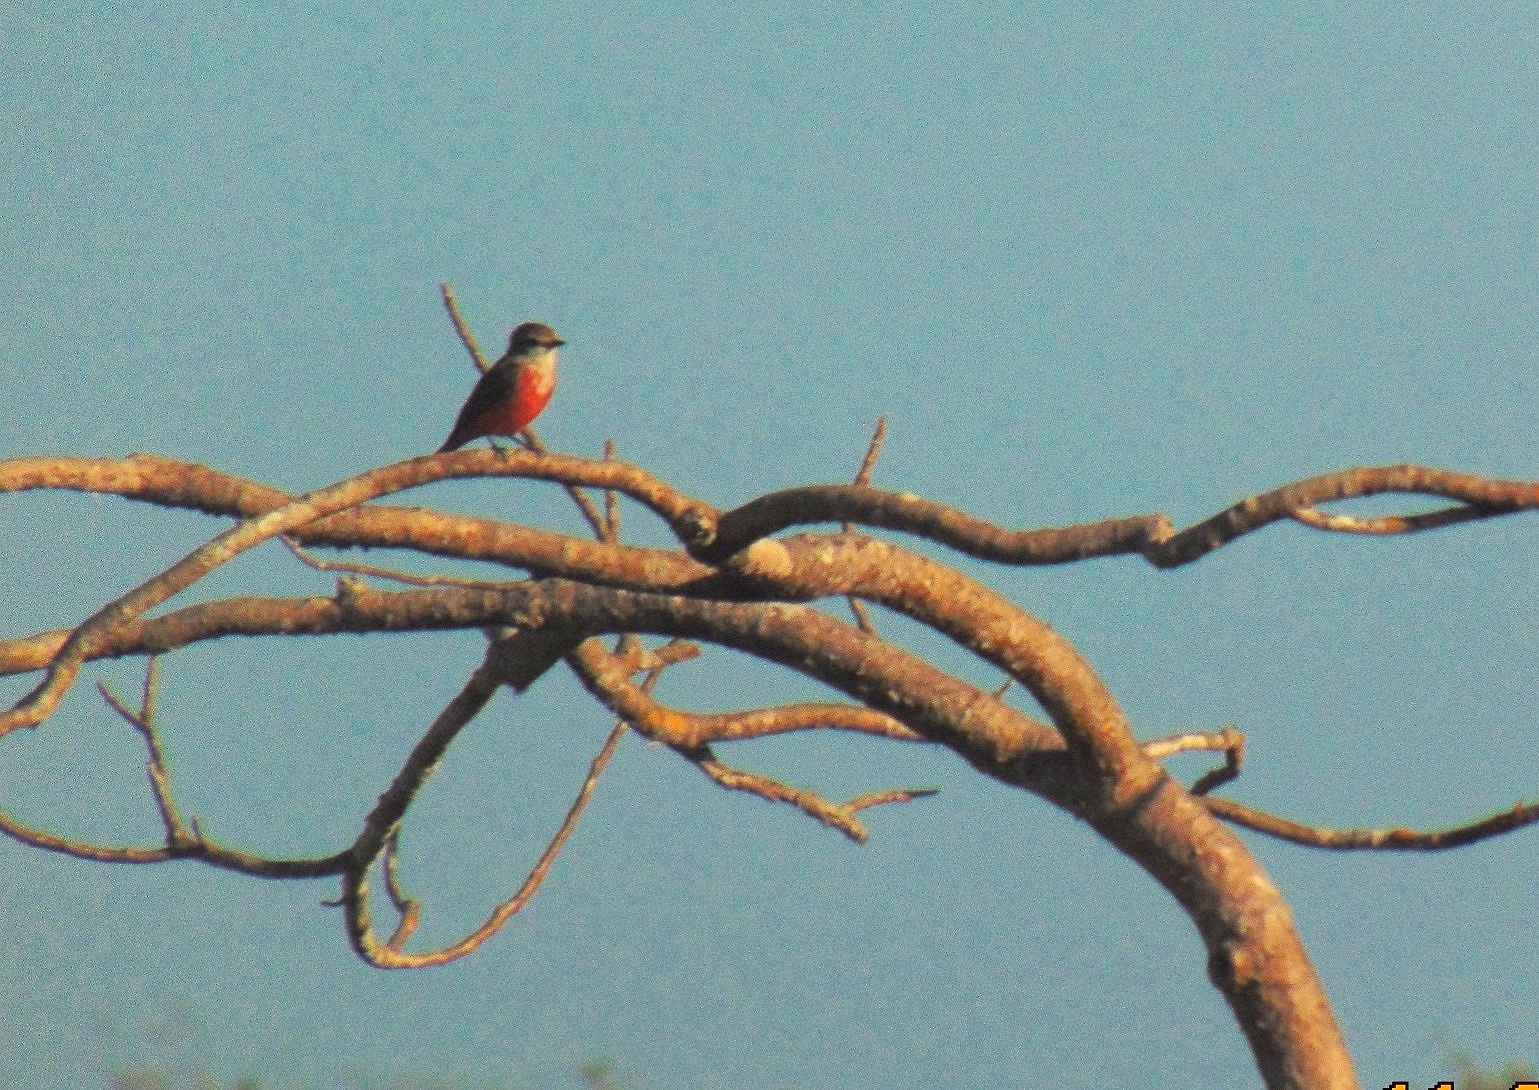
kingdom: Animalia
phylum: Chordata
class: Aves
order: Passeriformes
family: Tyrannidae
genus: Pyrocephalus
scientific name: Pyrocephalus rubinus
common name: Vermilion flycatcher
